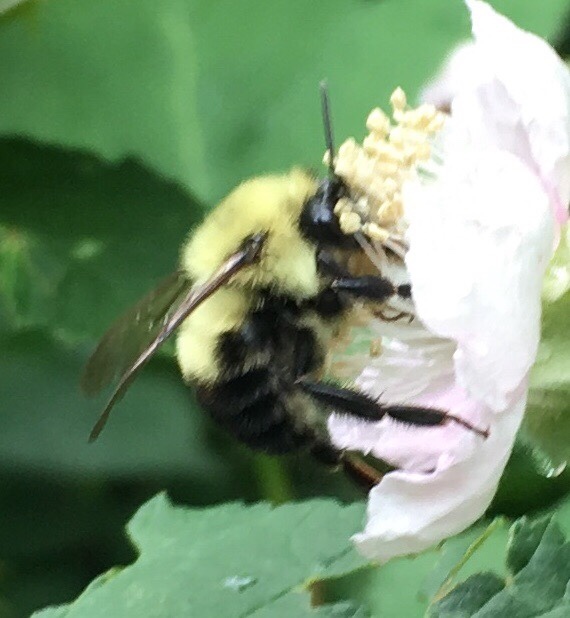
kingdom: Animalia
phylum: Arthropoda
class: Insecta
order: Hymenoptera
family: Apidae
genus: Bombus
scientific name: Bombus bimaculatus
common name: Two-spotted bumble bee
